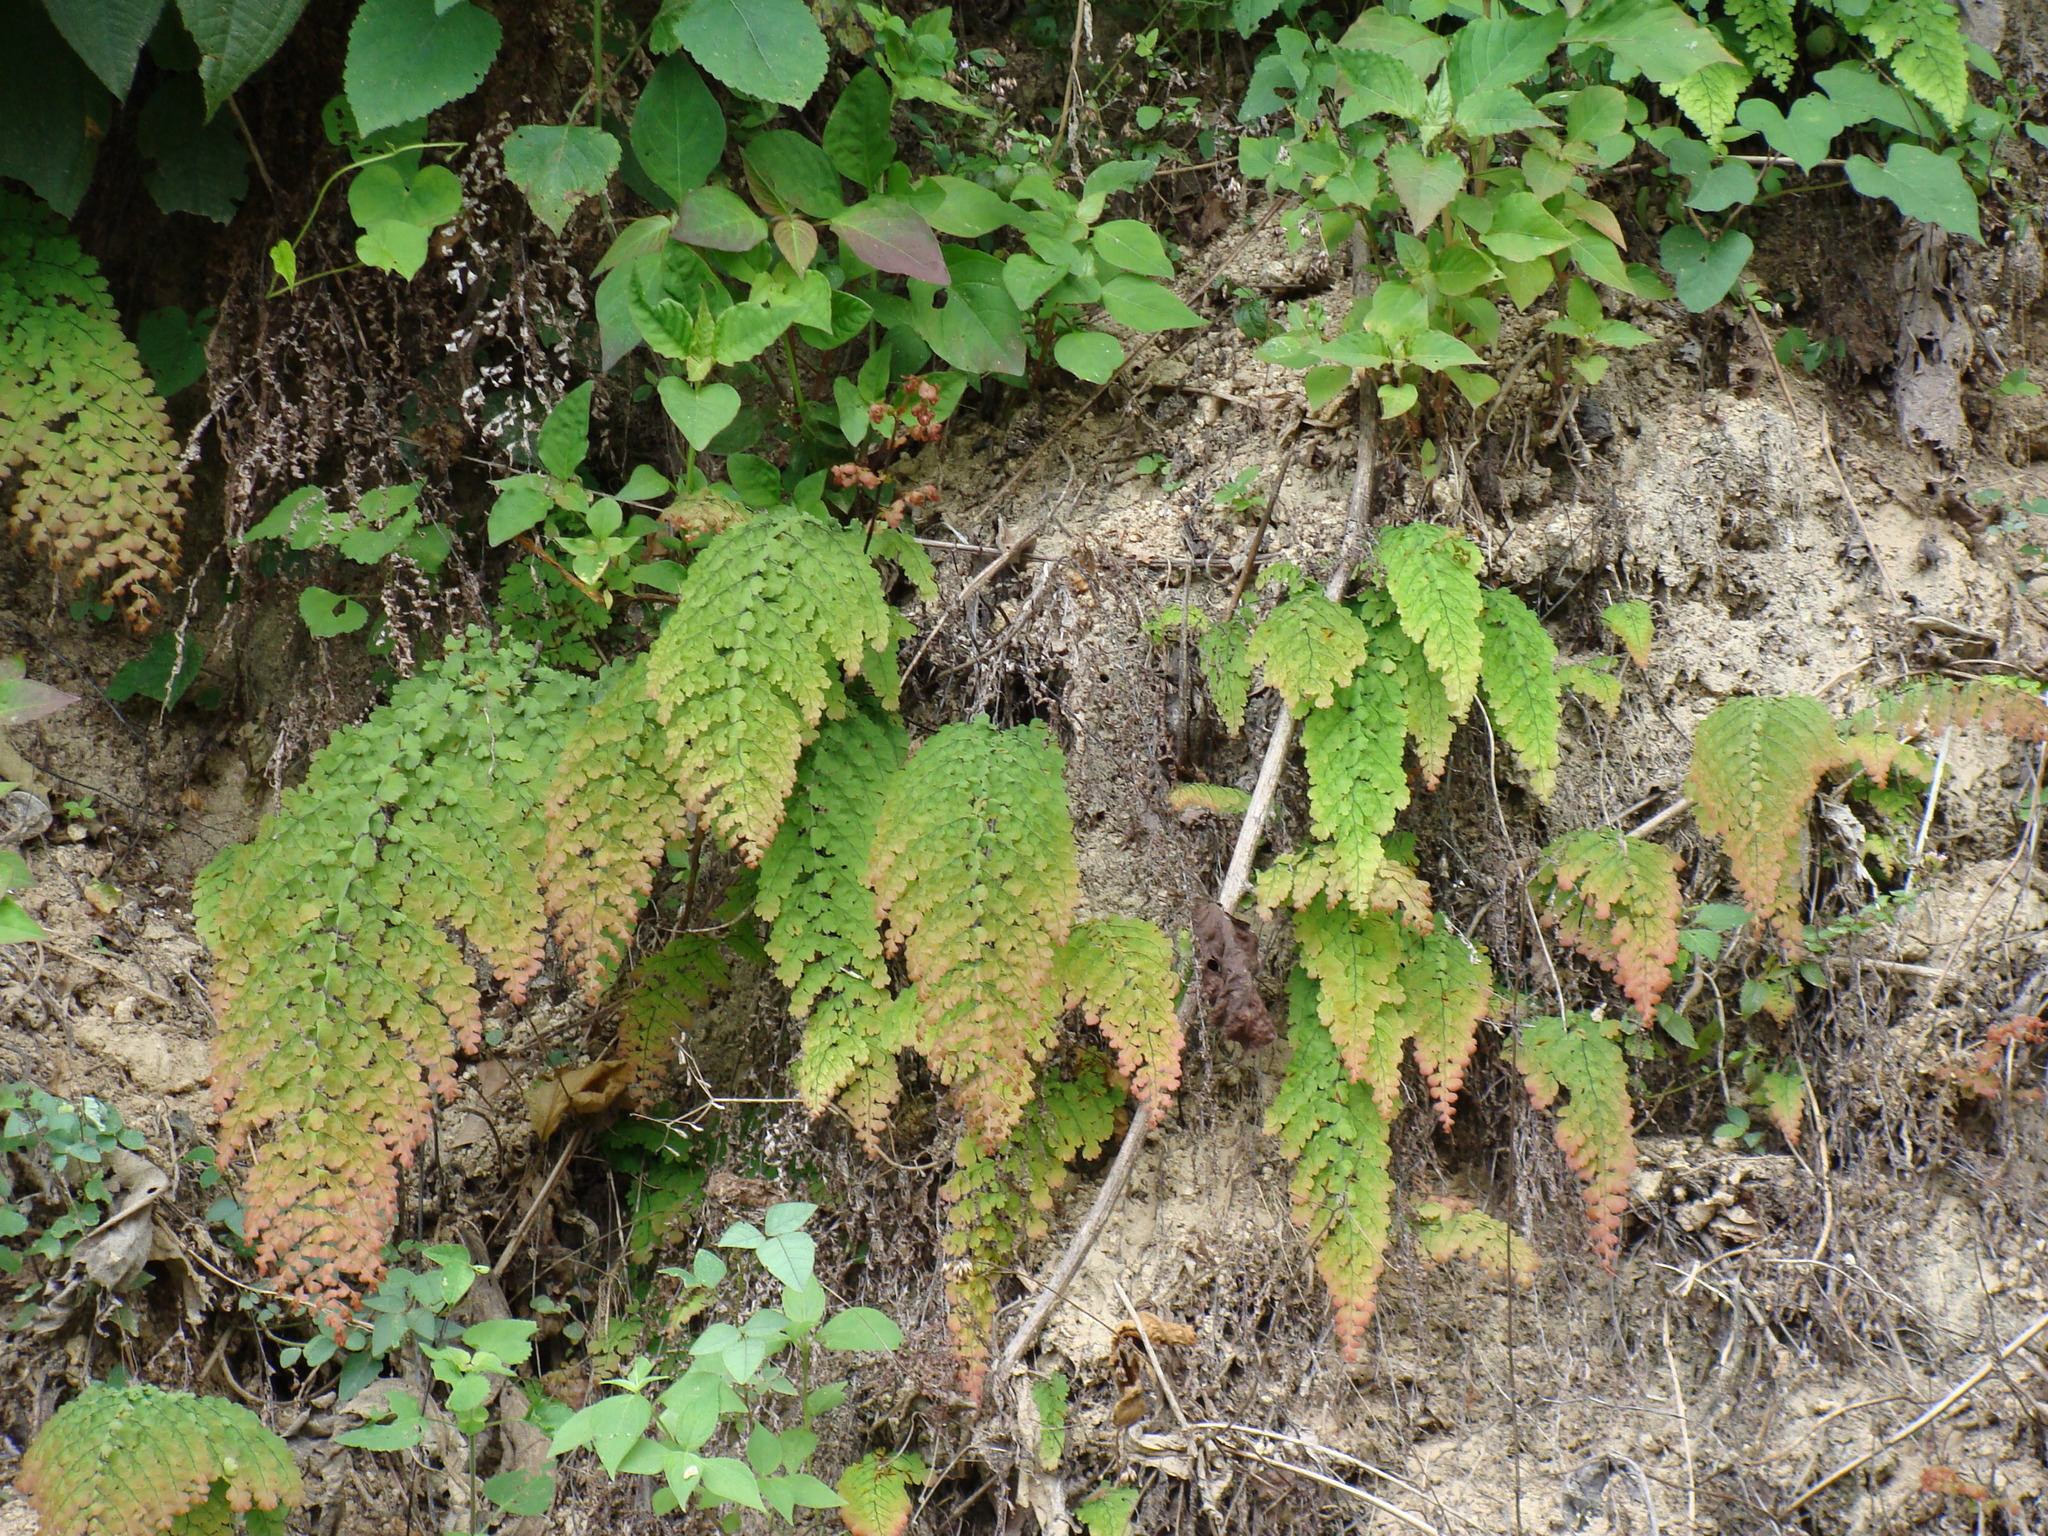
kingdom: Plantae
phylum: Tracheophyta
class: Polypodiopsida
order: Polypodiales
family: Pteridaceae
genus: Adiantum
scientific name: Adiantum concinnum
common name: Brittle maidenhair fern
